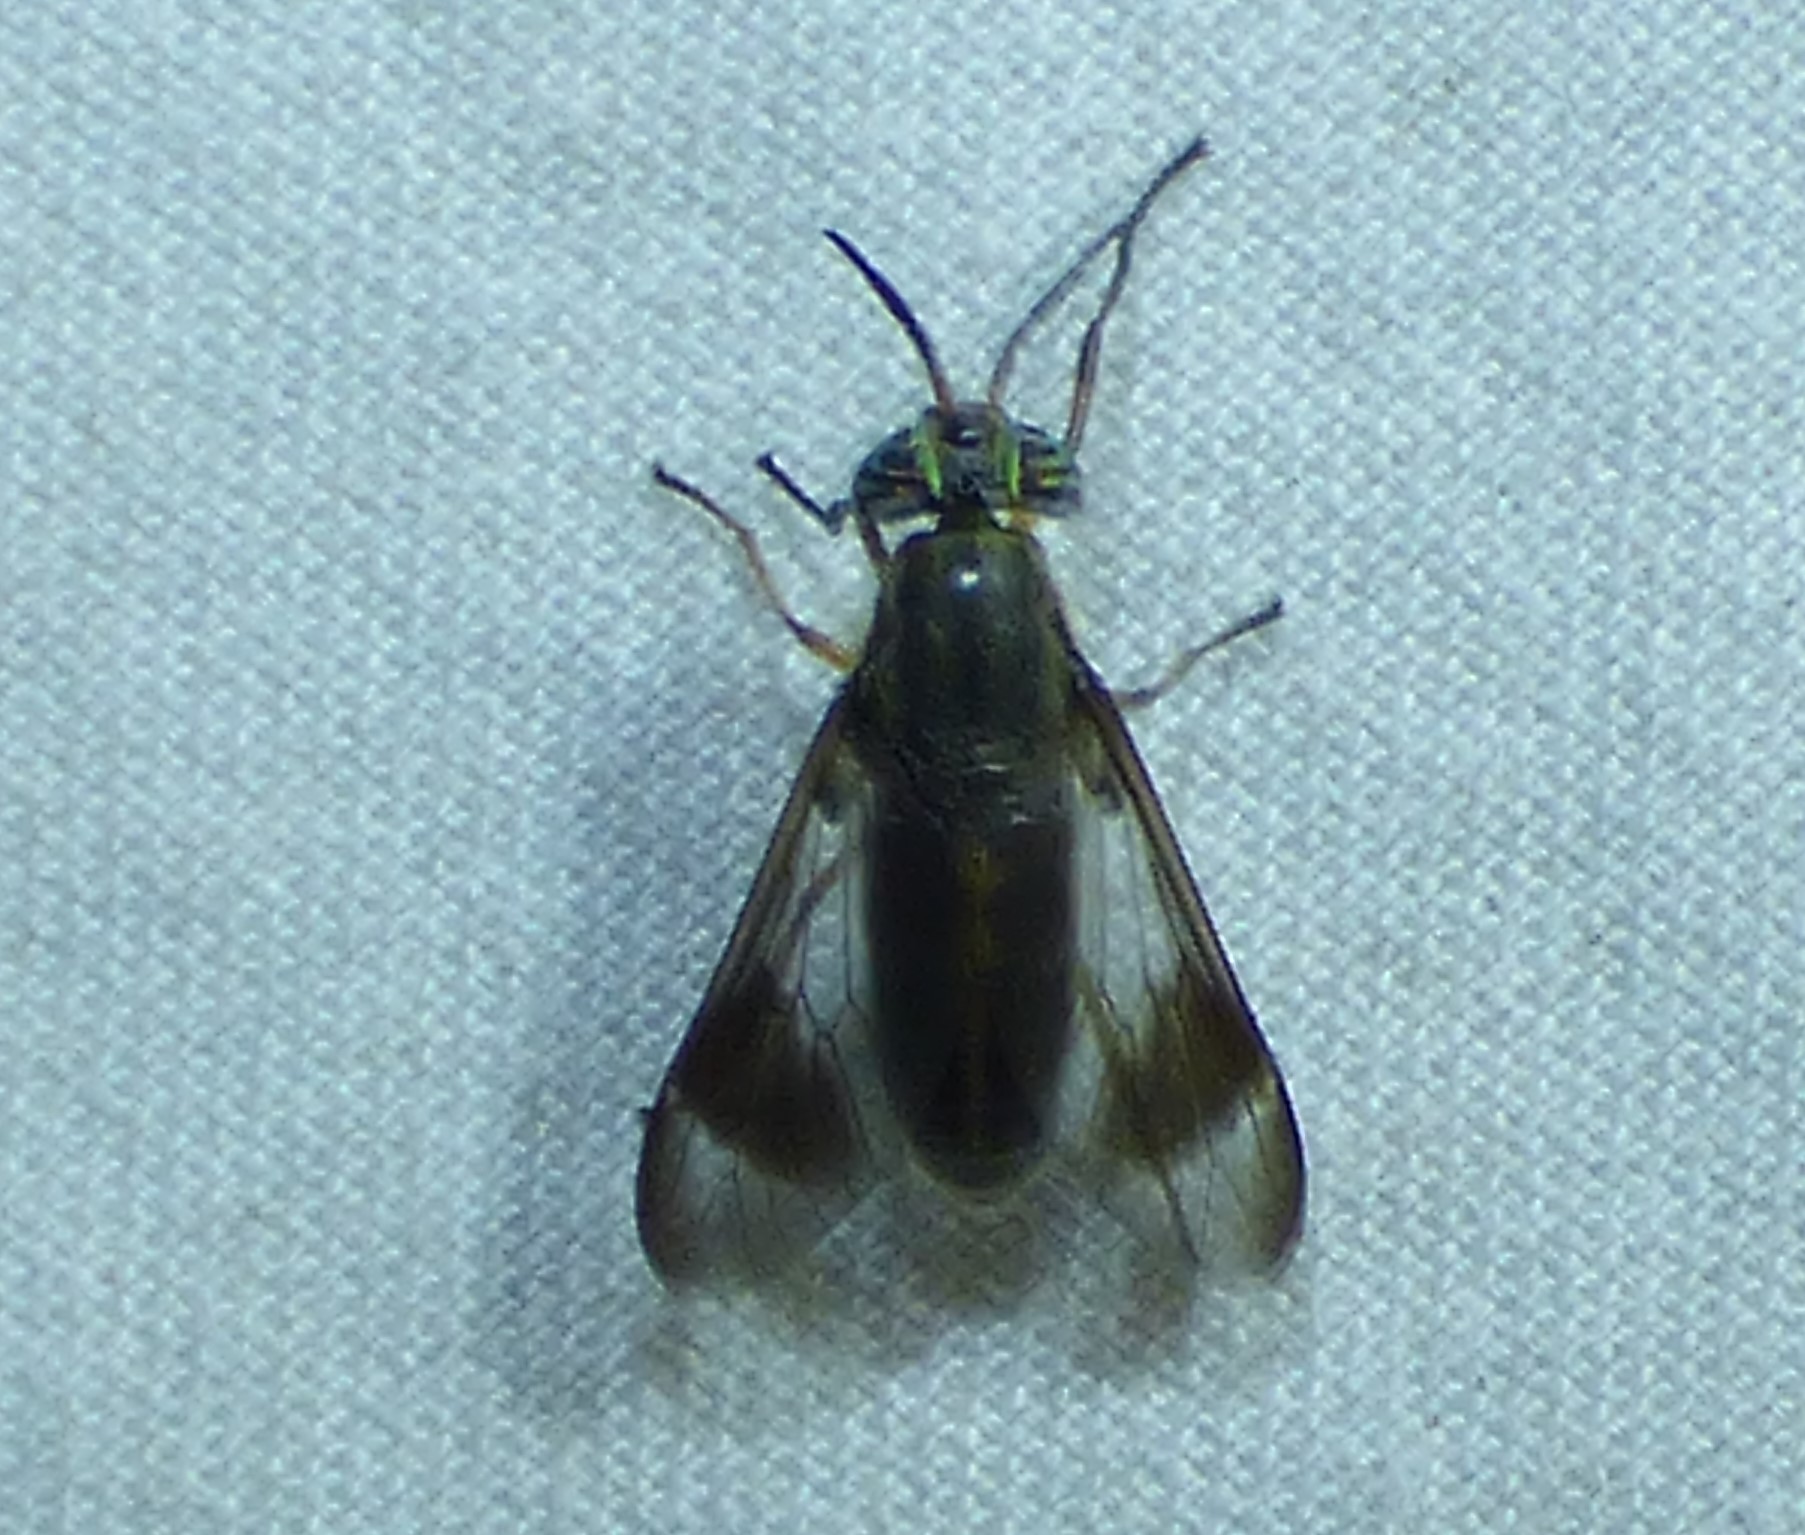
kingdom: Animalia
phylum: Arthropoda
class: Insecta
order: Diptera
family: Tabanidae
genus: Chrysops
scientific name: Chrysops vittatus
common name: Striped deer fly
